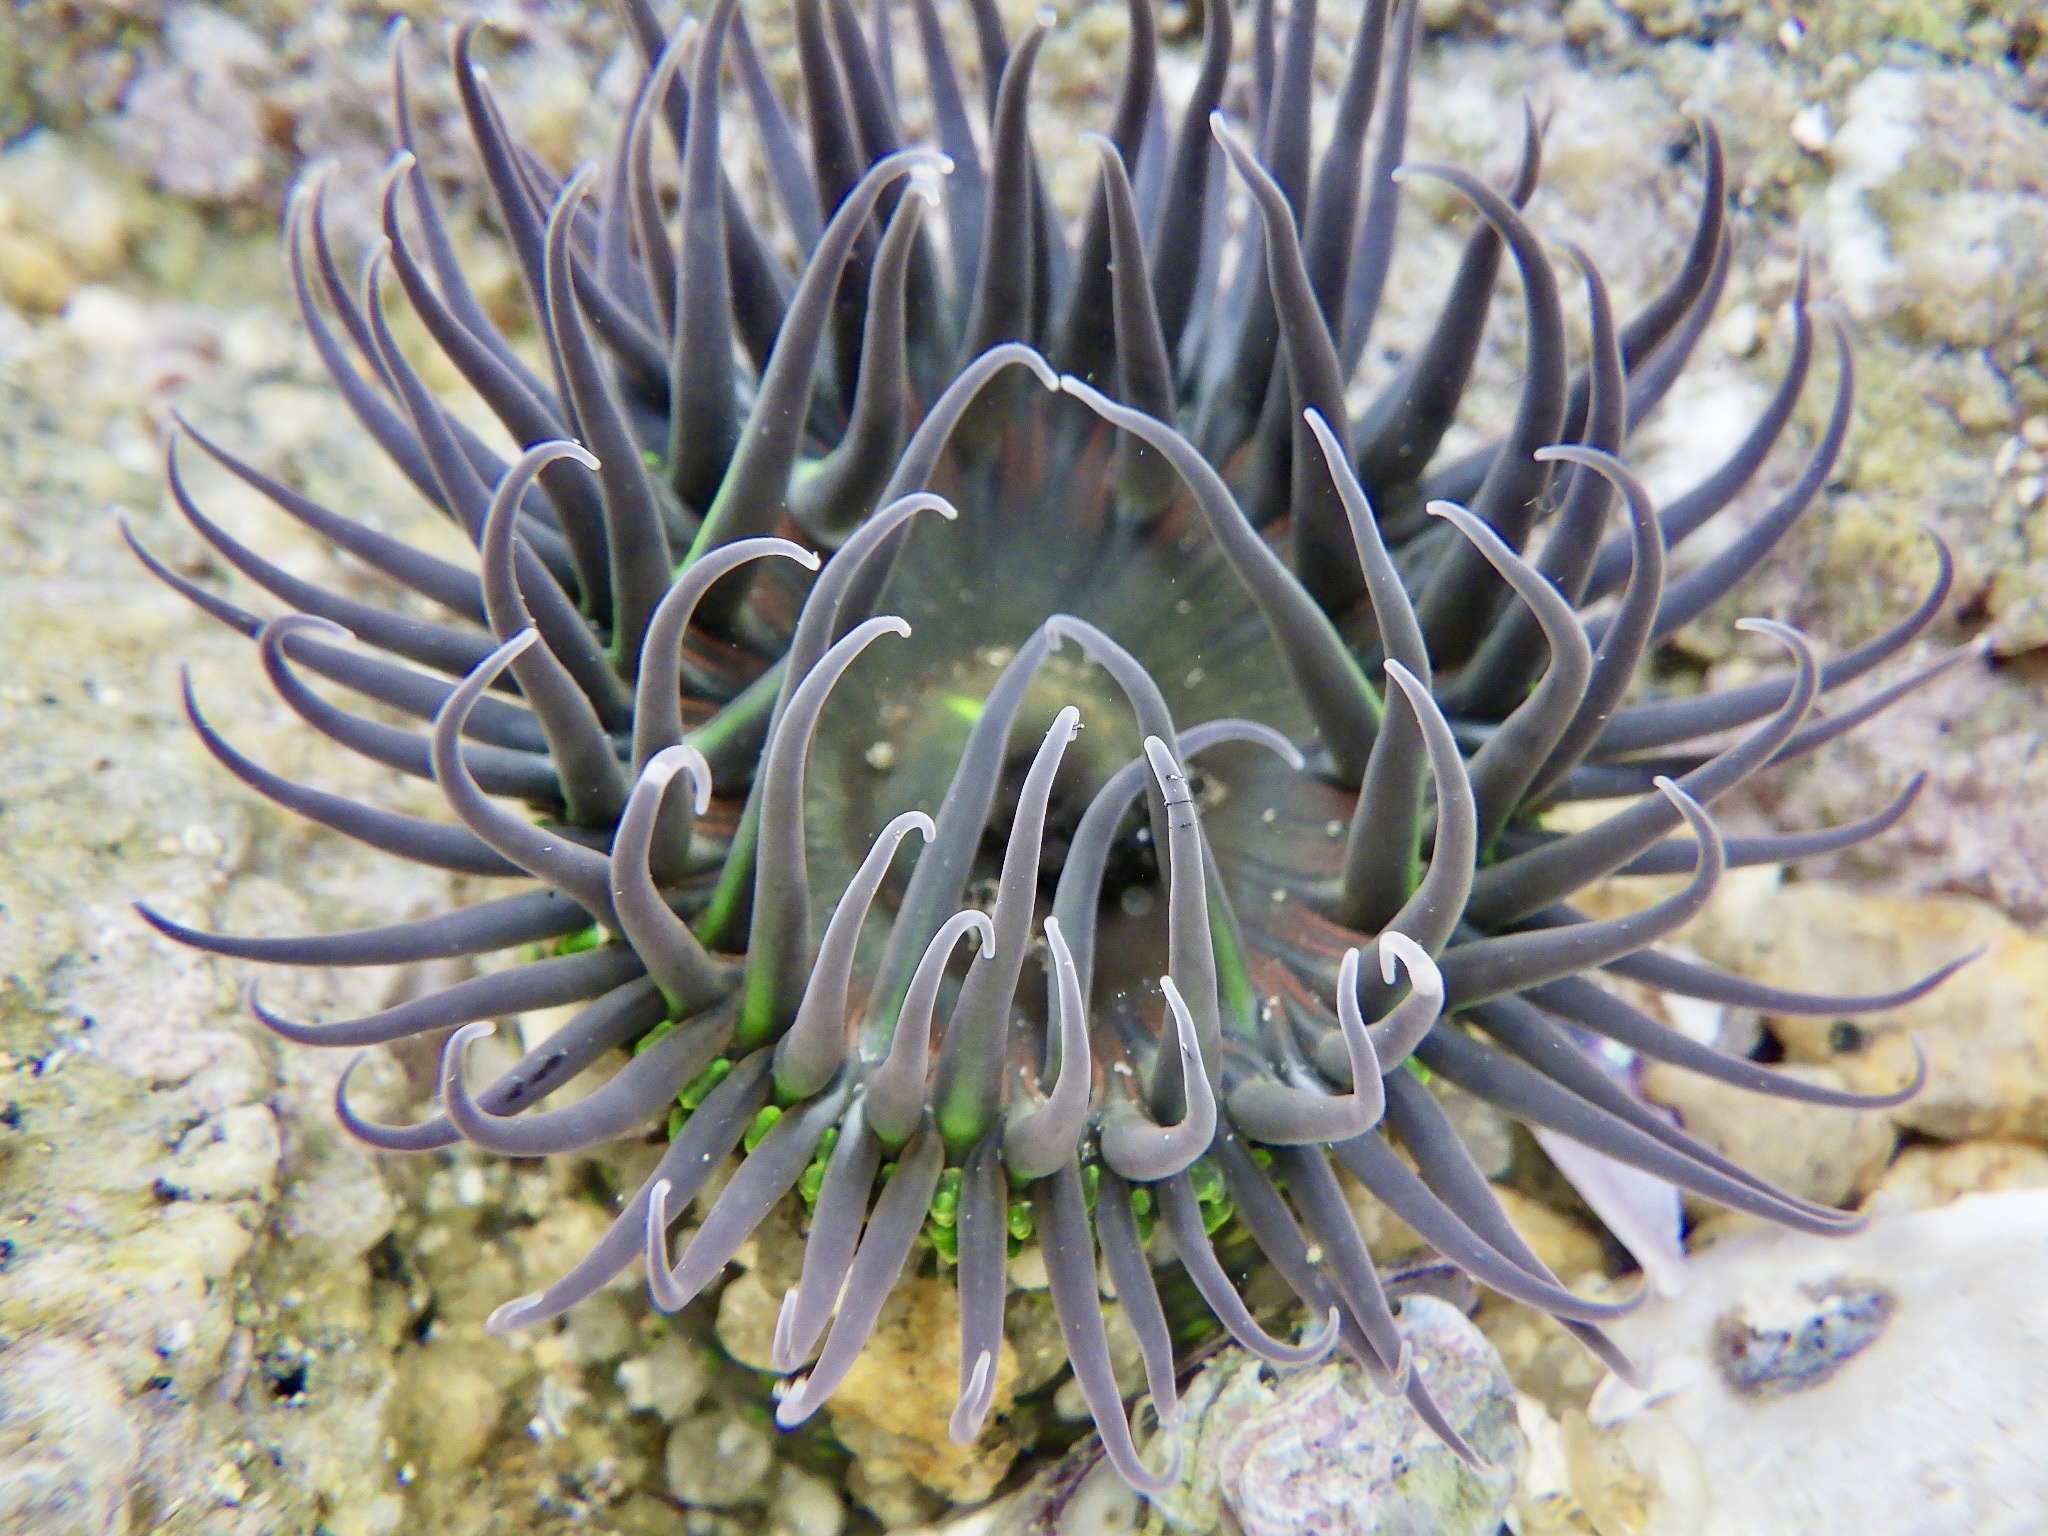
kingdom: Animalia
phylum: Cnidaria
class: Anthozoa
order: Actiniaria
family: Actiniidae
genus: Anthopleura
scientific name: Anthopleura fuscoviridis
